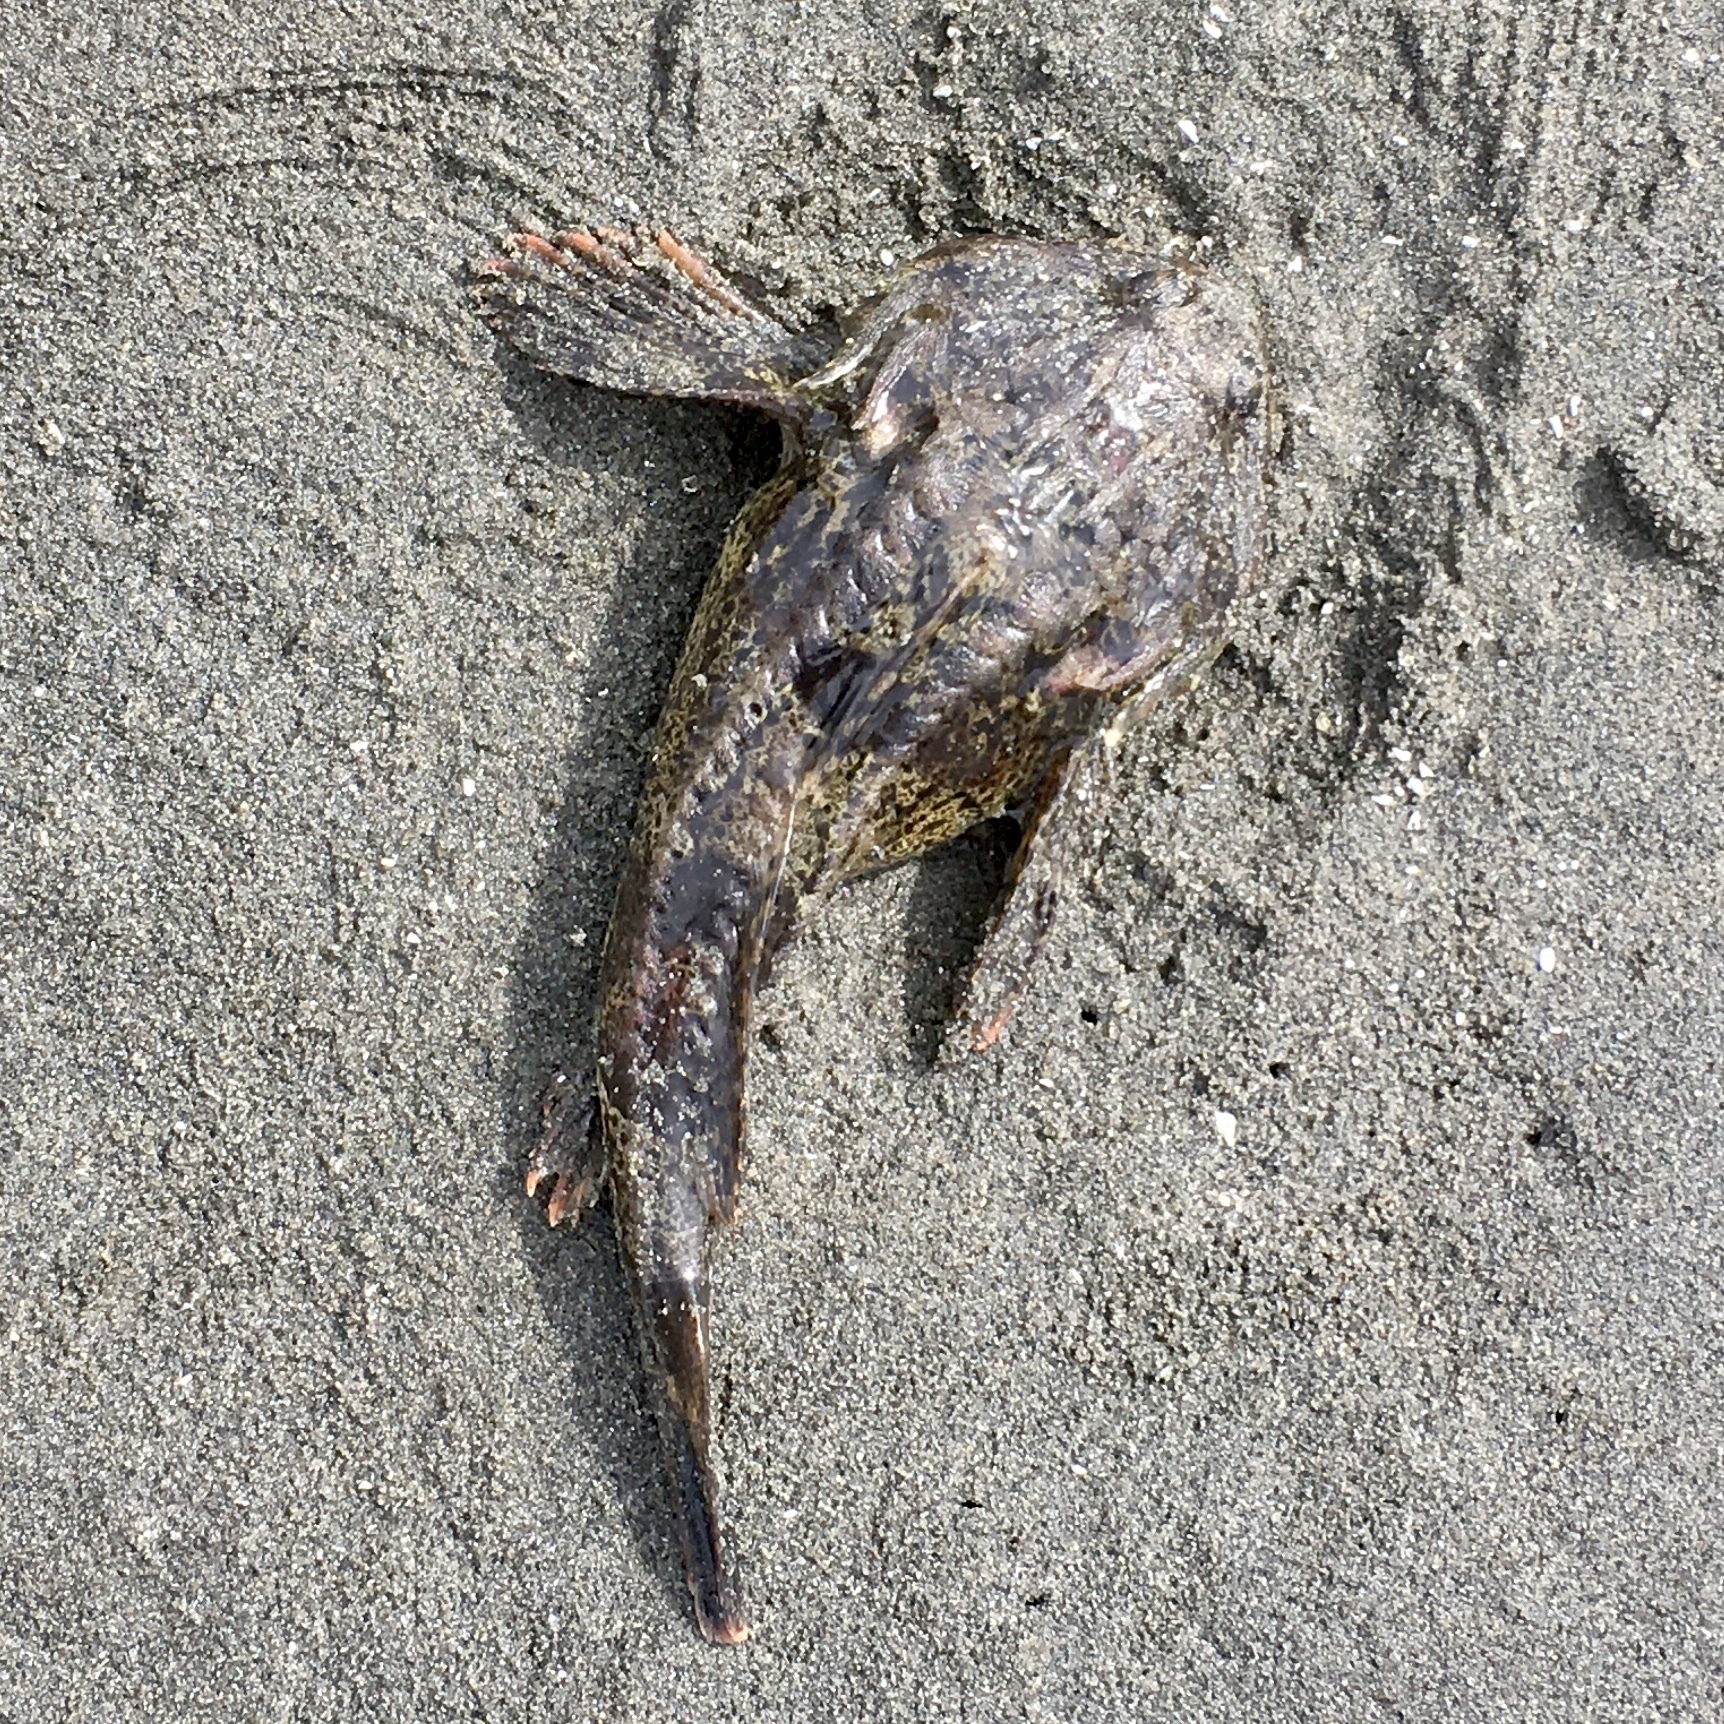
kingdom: Animalia
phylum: Chordata
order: Scorpaeniformes
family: Cottidae
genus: Enophrys
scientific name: Enophrys bison
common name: Buffalo sculpin
